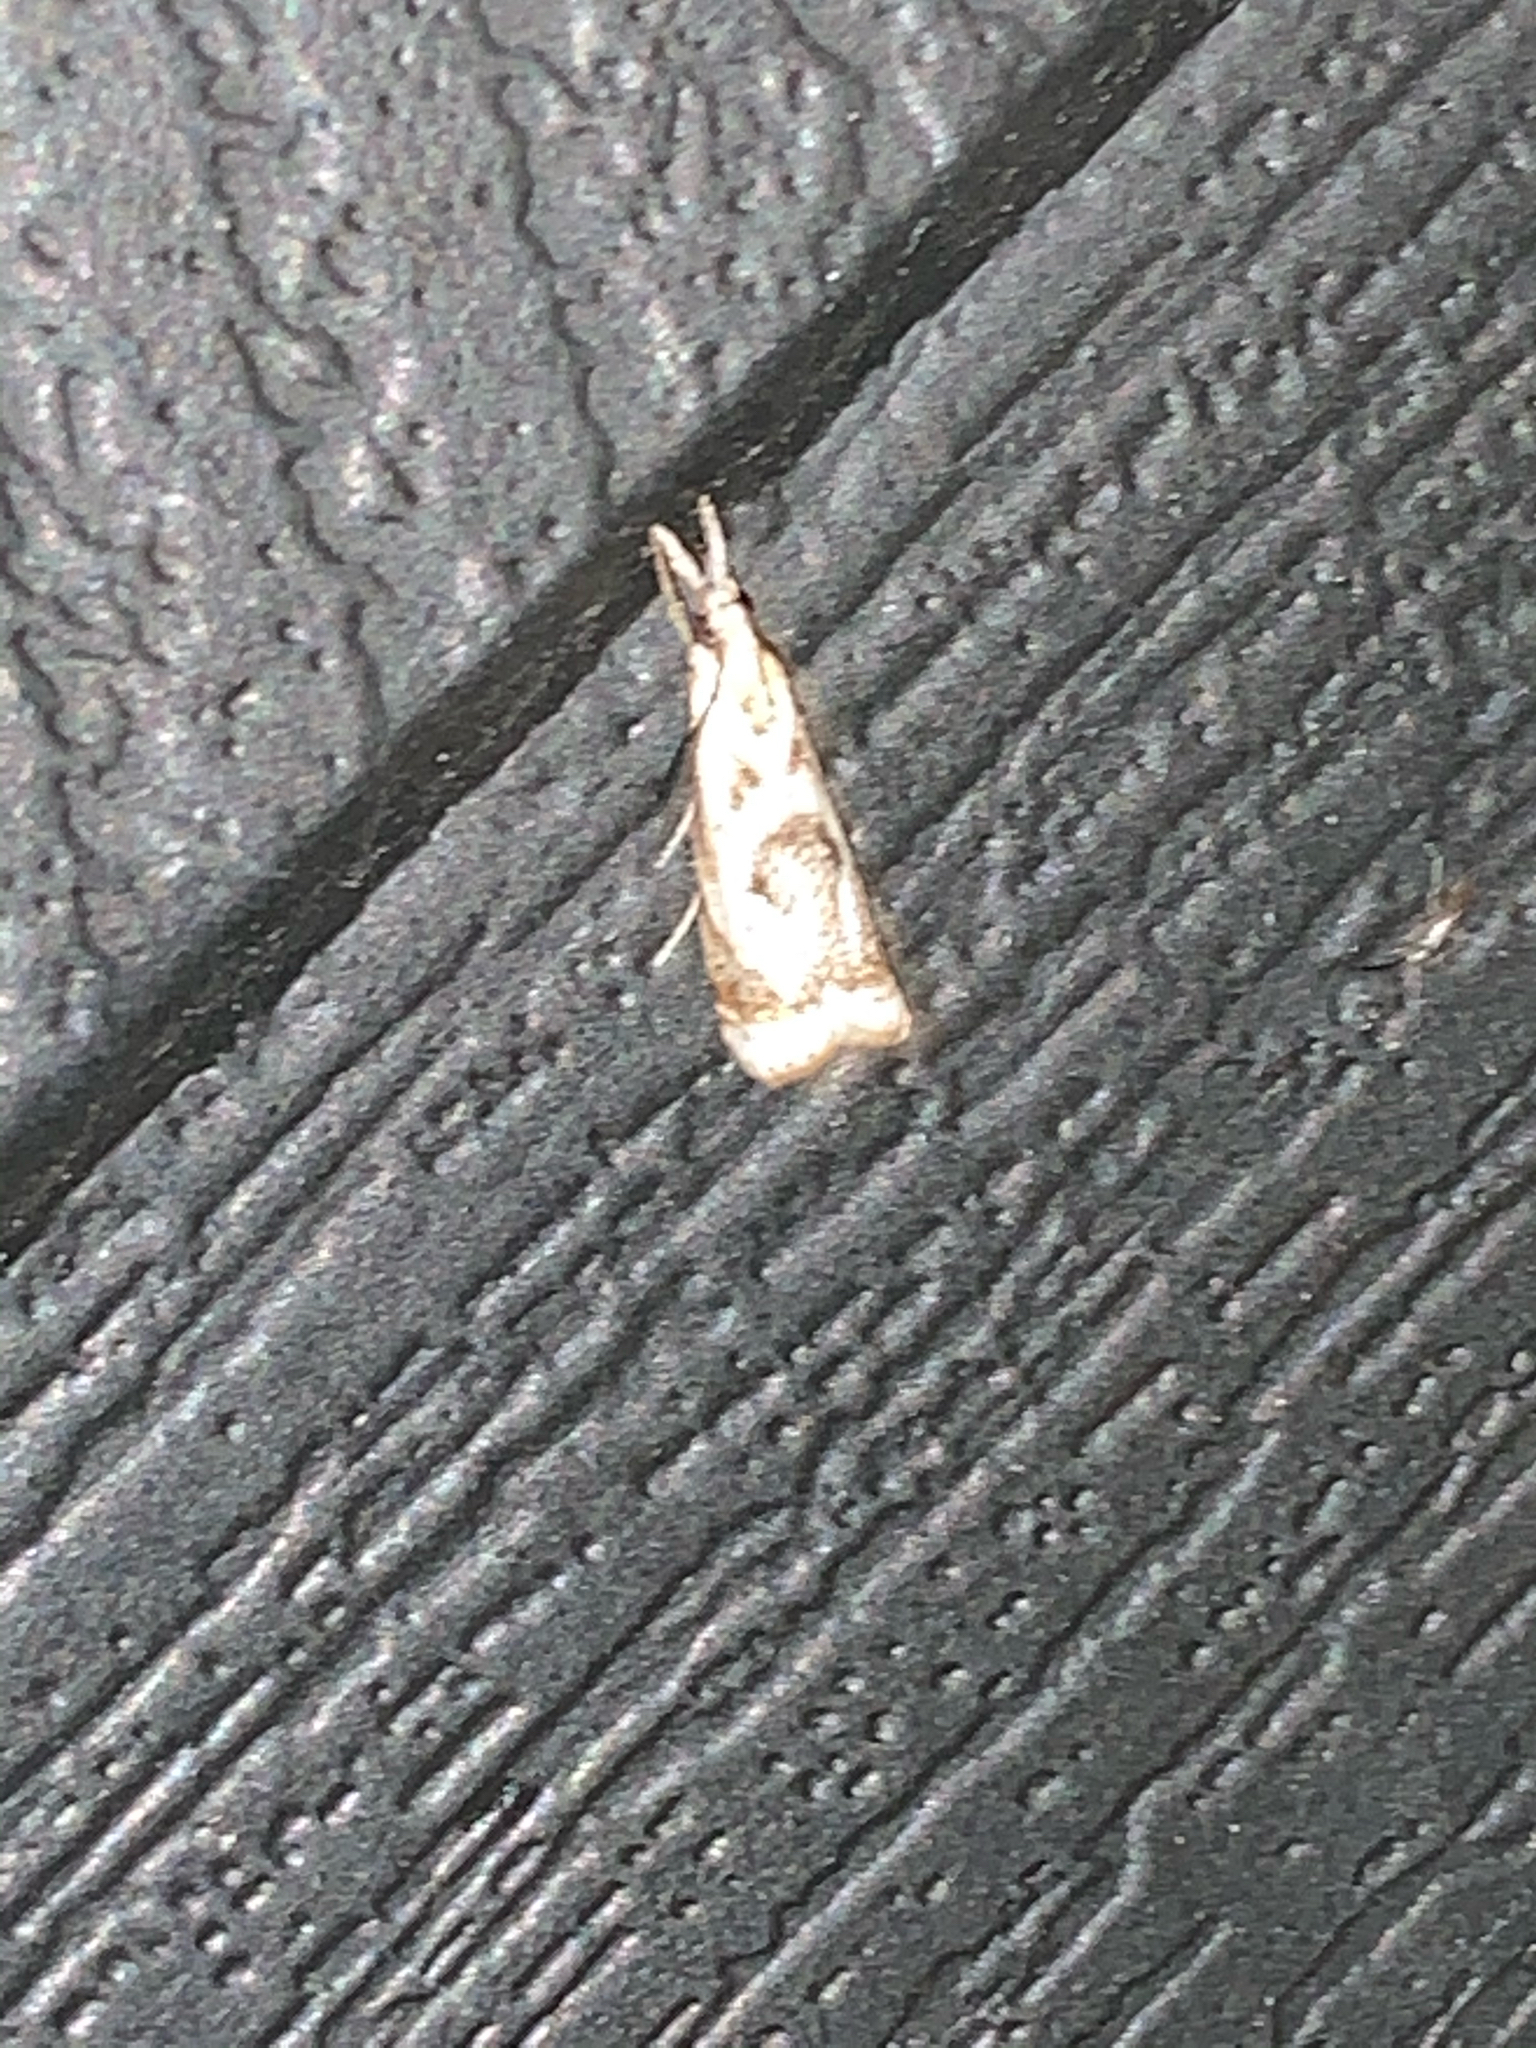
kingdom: Animalia
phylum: Arthropoda
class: Insecta
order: Lepidoptera
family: Crambidae
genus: Microcrambus
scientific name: Microcrambus elegans
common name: Elegant grass-veneer
